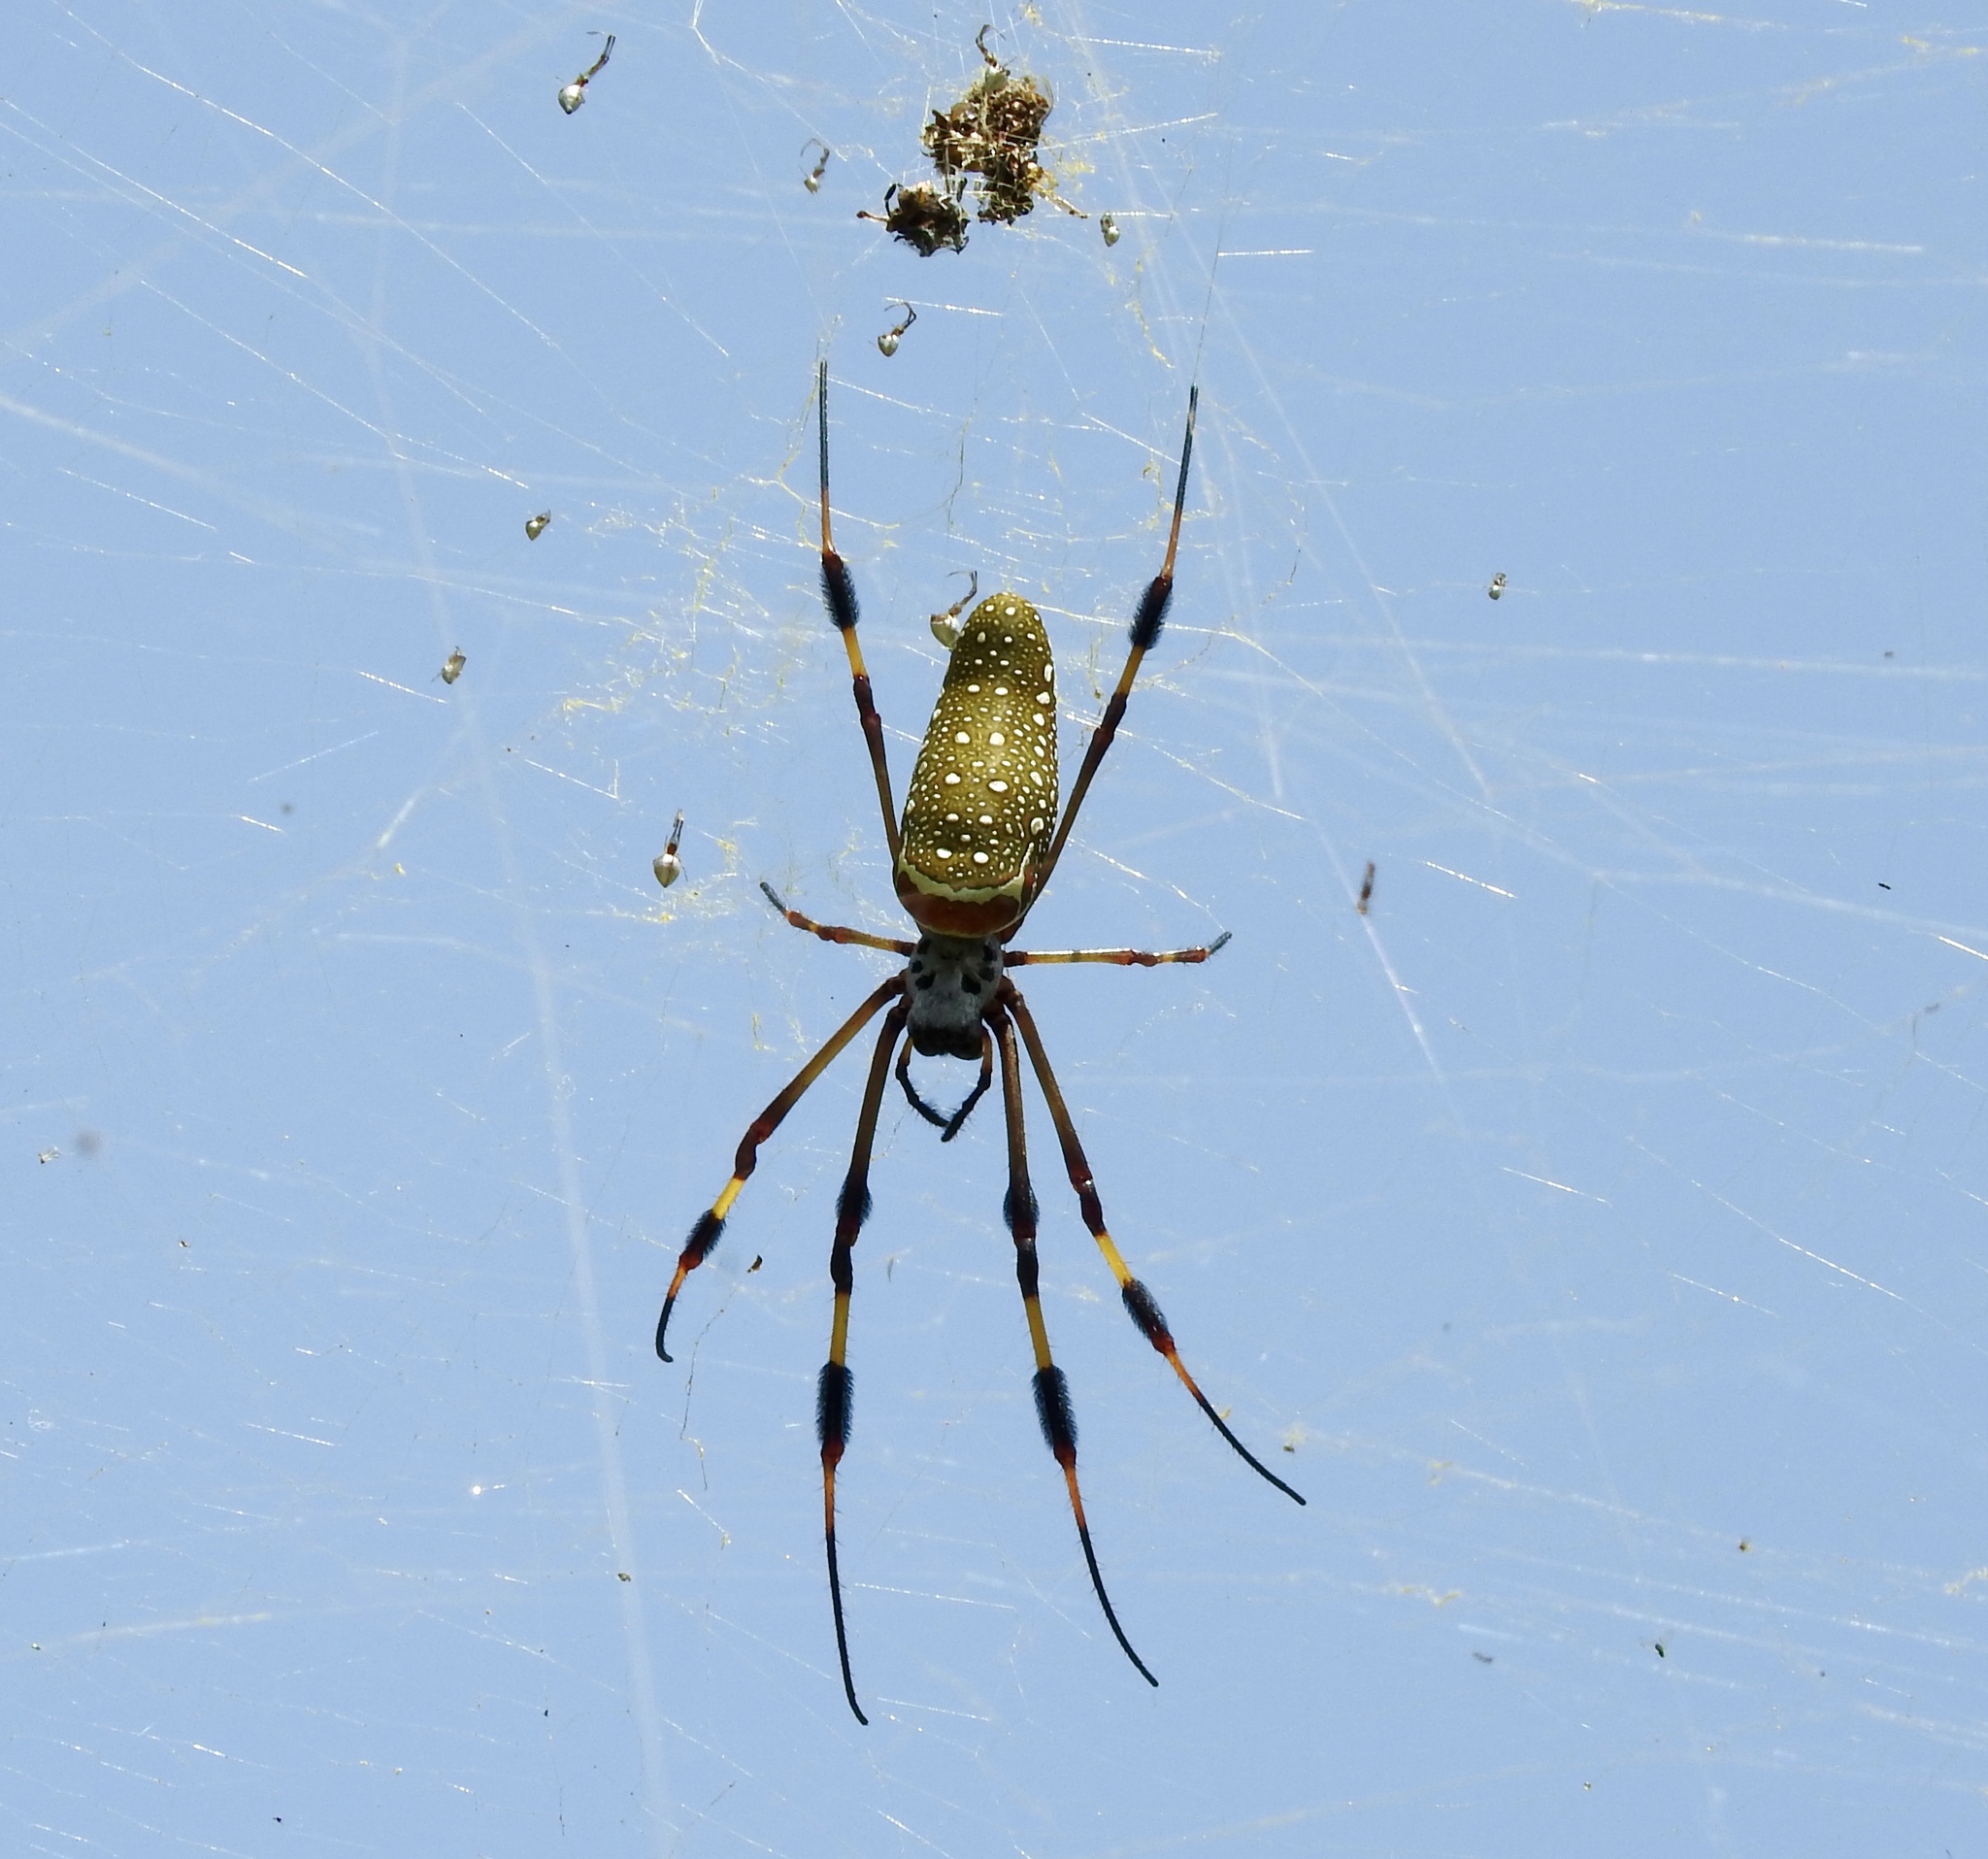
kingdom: Animalia
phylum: Arthropoda
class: Arachnida
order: Araneae
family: Araneidae
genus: Trichonephila
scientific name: Trichonephila clavipes
